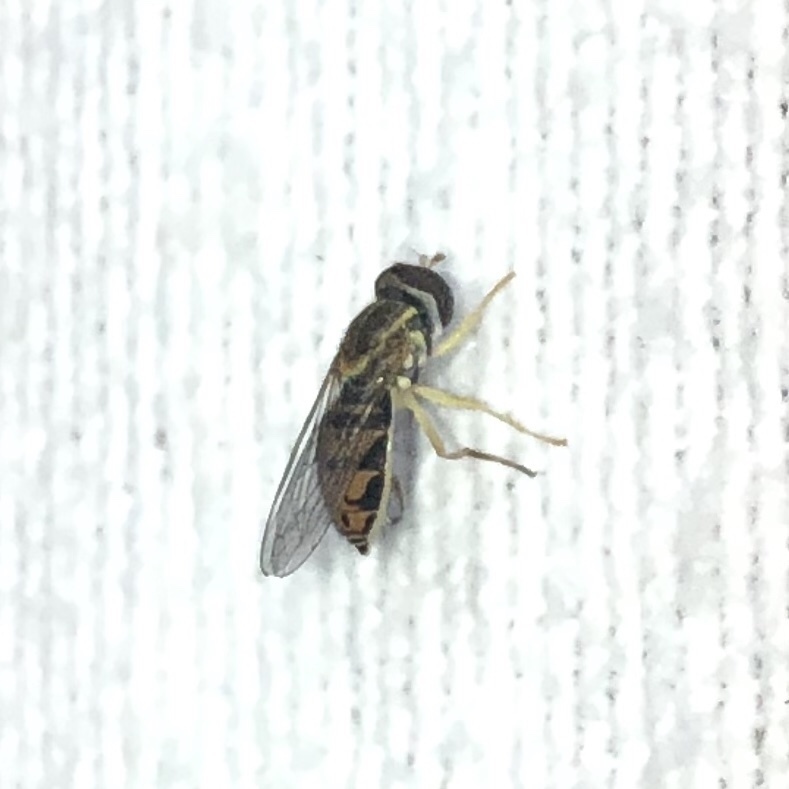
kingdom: Animalia
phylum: Arthropoda
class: Insecta
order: Diptera
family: Syrphidae
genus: Toxomerus
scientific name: Toxomerus marginatus
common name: Syrphid fly
